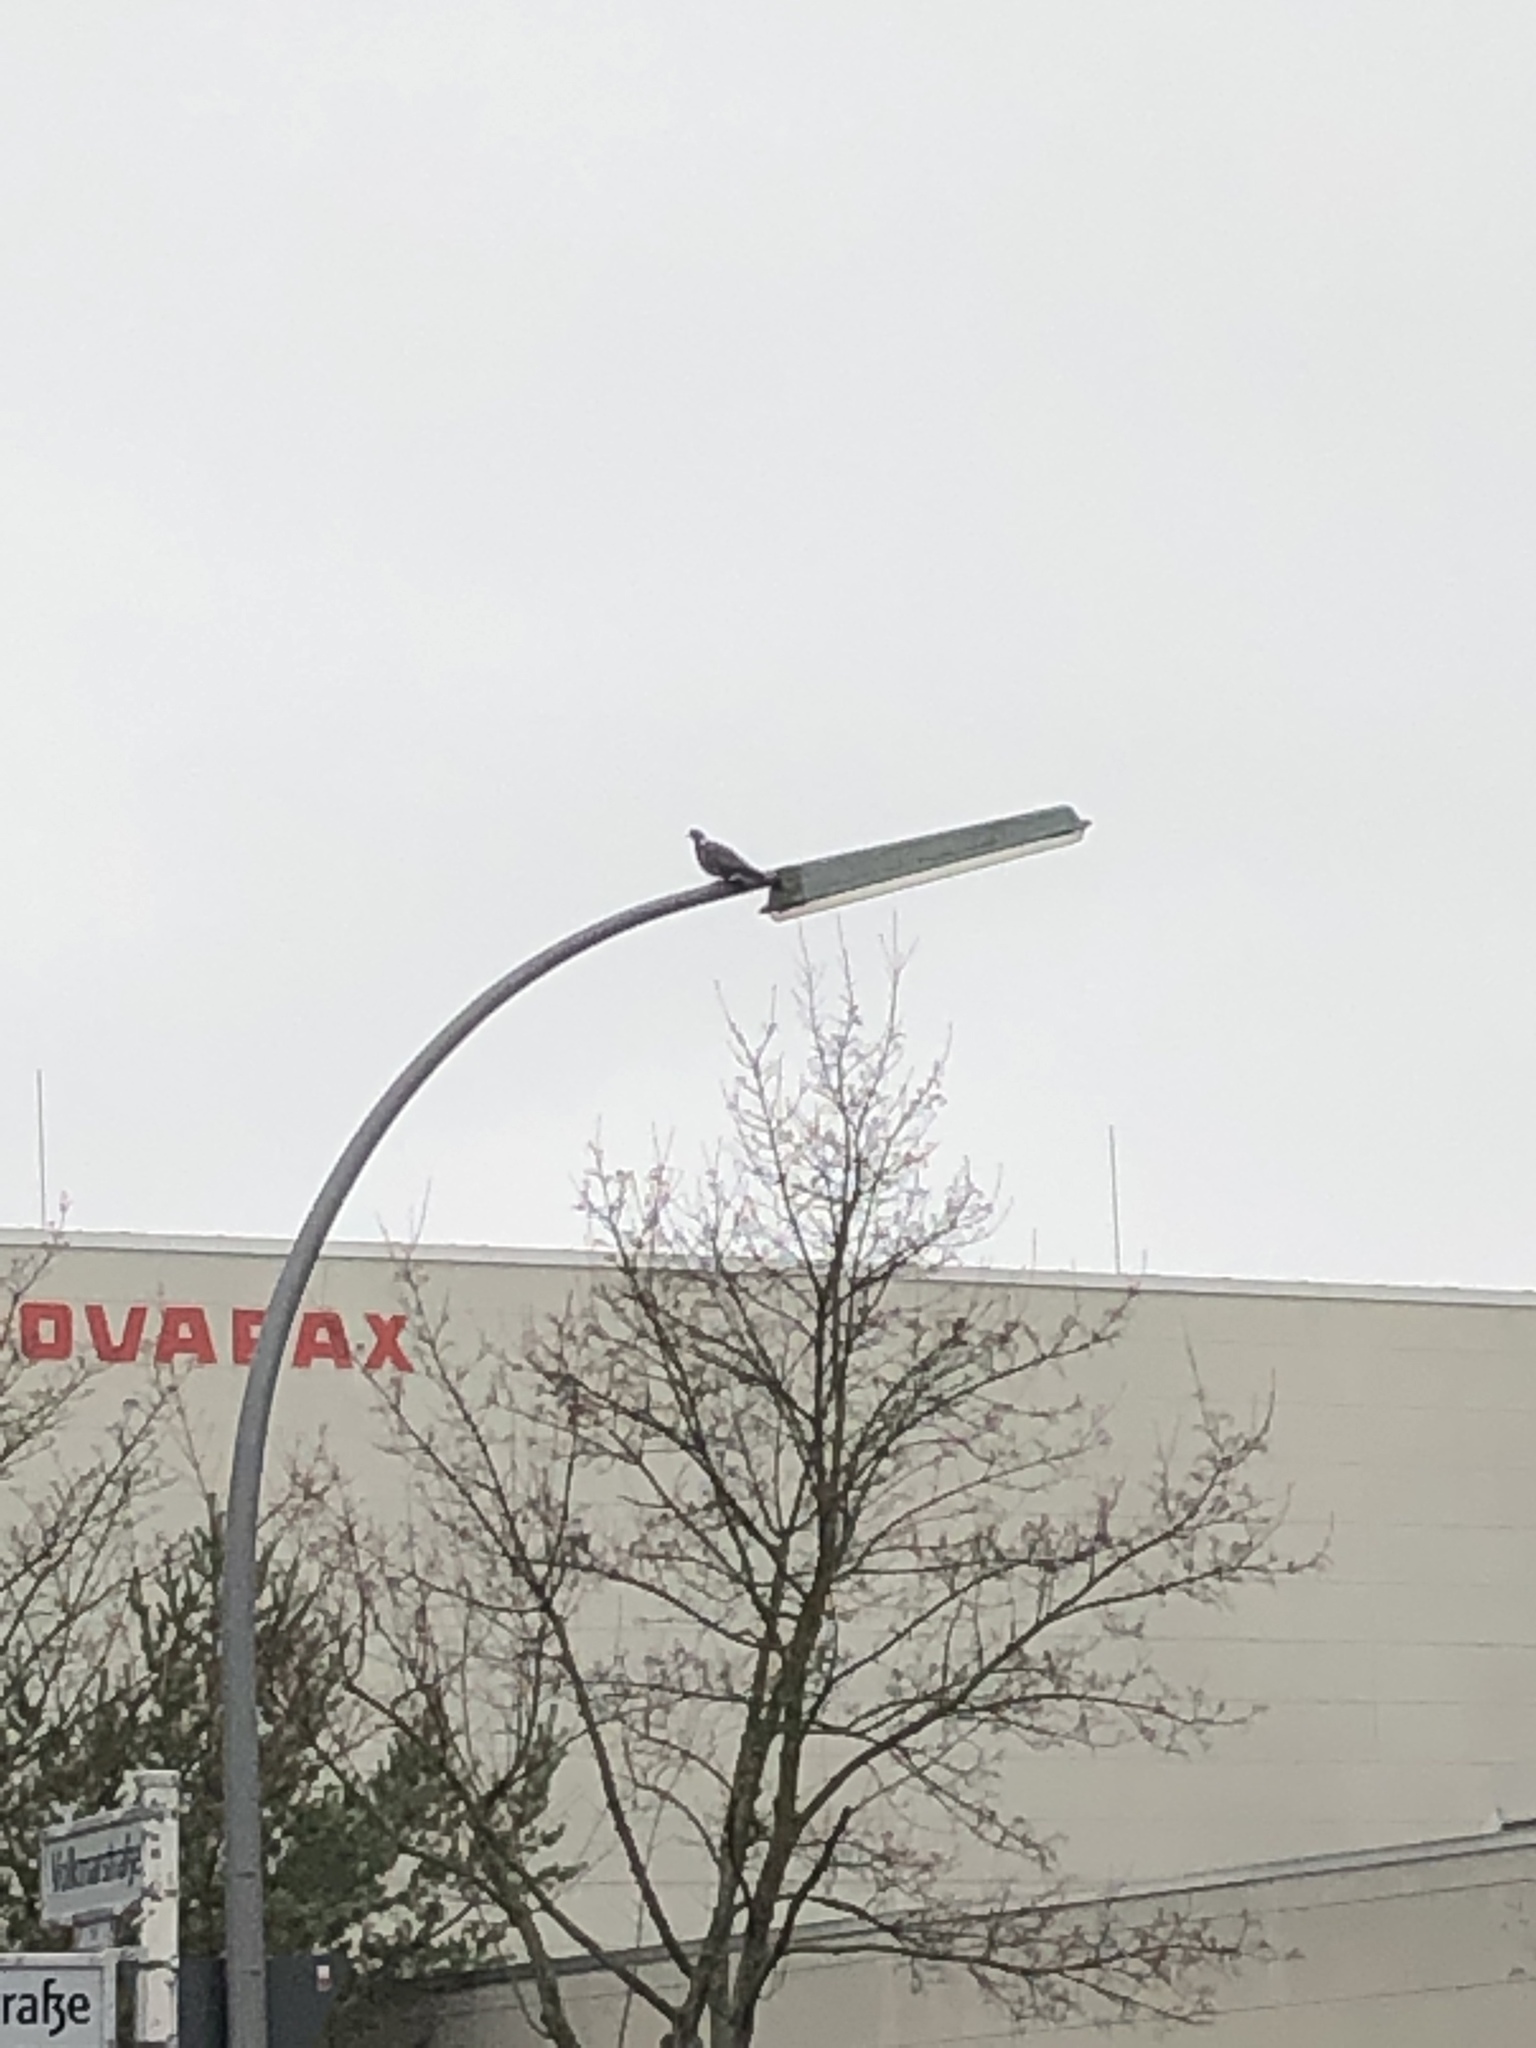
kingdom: Animalia
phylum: Chordata
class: Aves
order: Columbiformes
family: Columbidae
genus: Columba
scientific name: Columba palumbus
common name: Common wood pigeon
